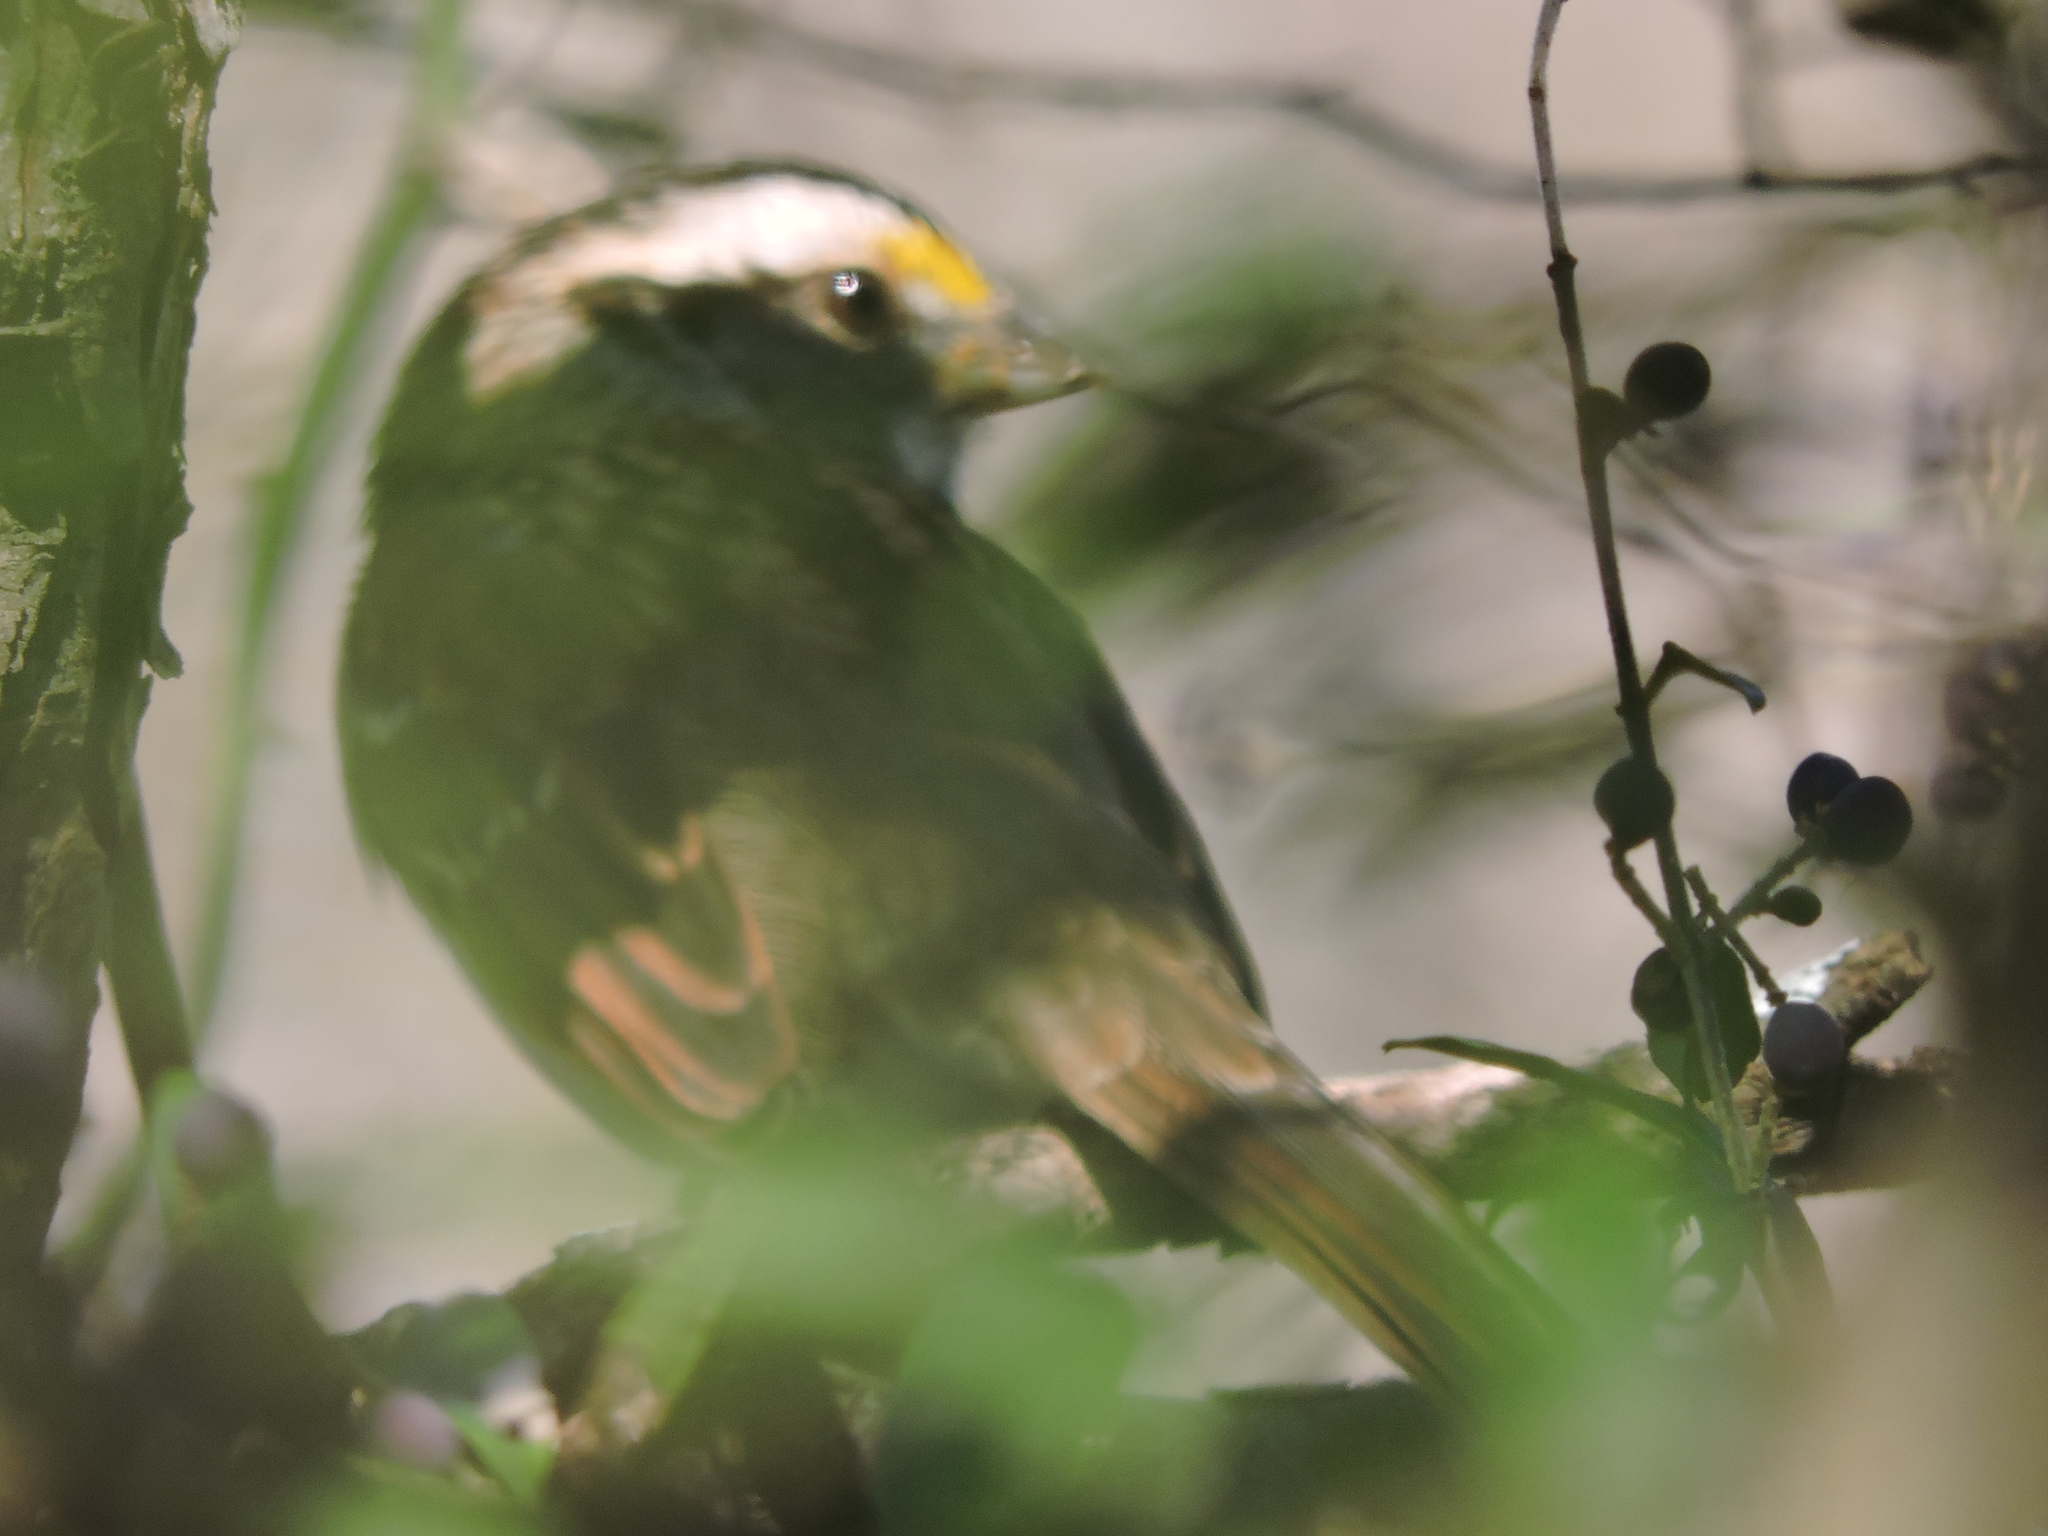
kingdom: Animalia
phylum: Chordata
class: Aves
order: Passeriformes
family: Passerellidae
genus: Zonotrichia
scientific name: Zonotrichia albicollis
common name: White-throated sparrow
